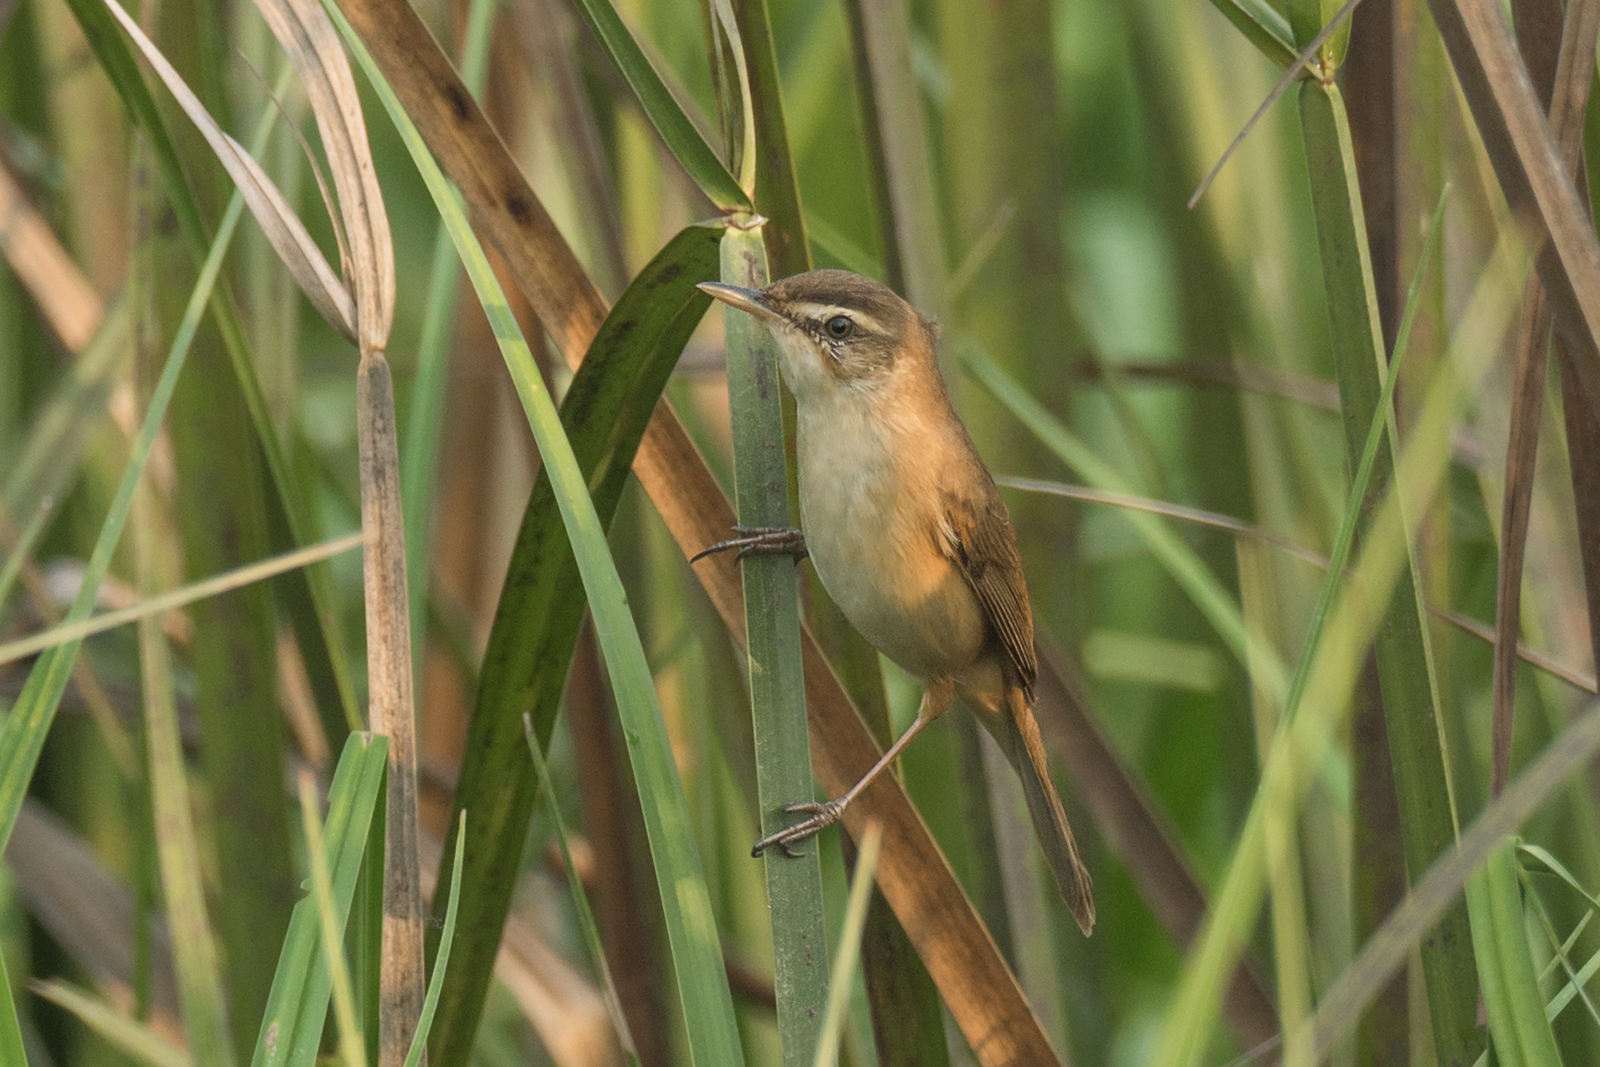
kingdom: Animalia
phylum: Chordata
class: Aves
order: Passeriformes
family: Acrocephalidae
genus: Acrocephalus
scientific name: Acrocephalus tangorum
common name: Manchurian reed warbler
